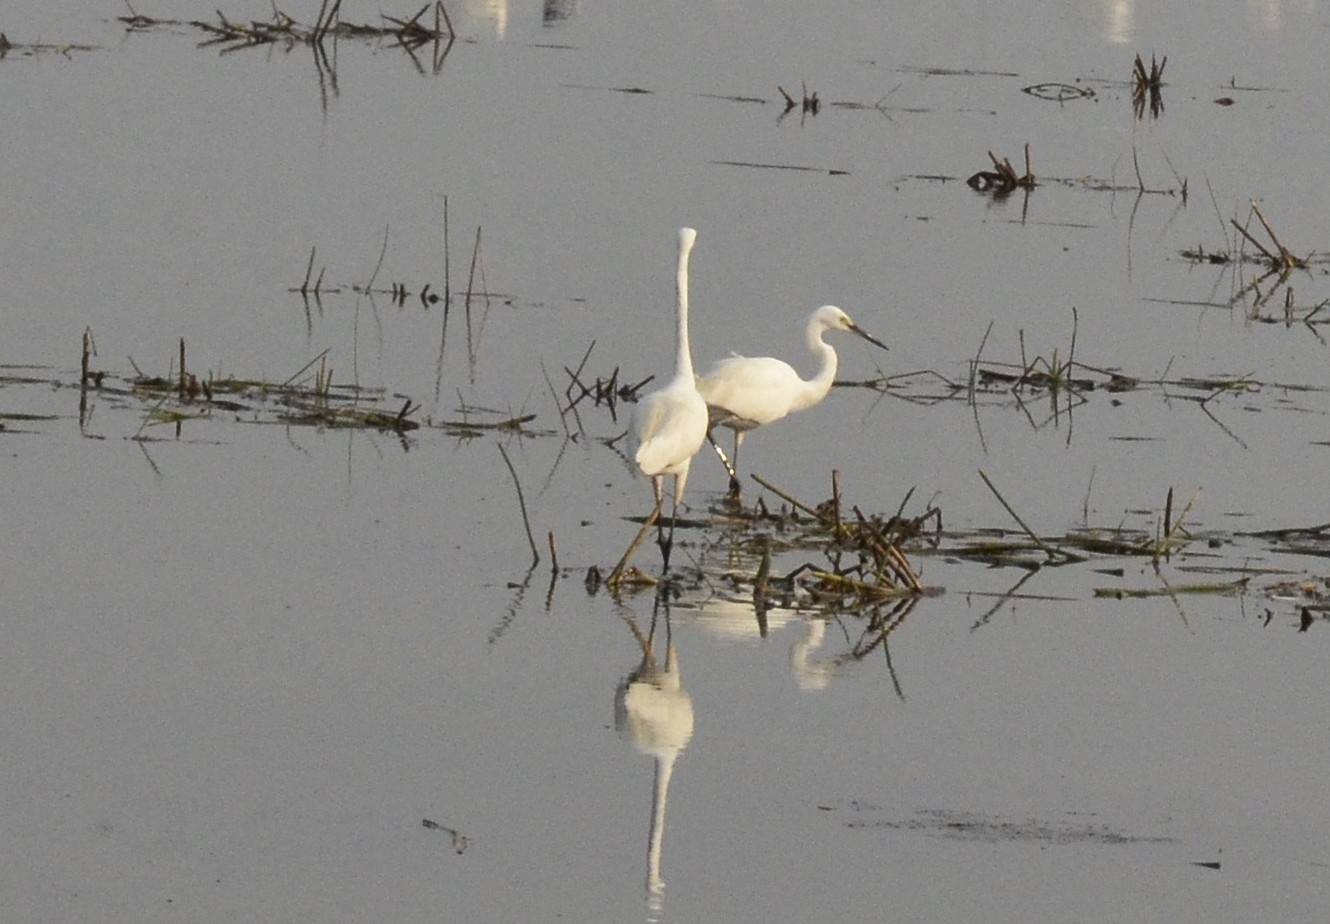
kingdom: Animalia
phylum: Chordata
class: Aves
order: Pelecaniformes
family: Ardeidae
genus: Egretta
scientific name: Egretta garzetta
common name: Little egret
